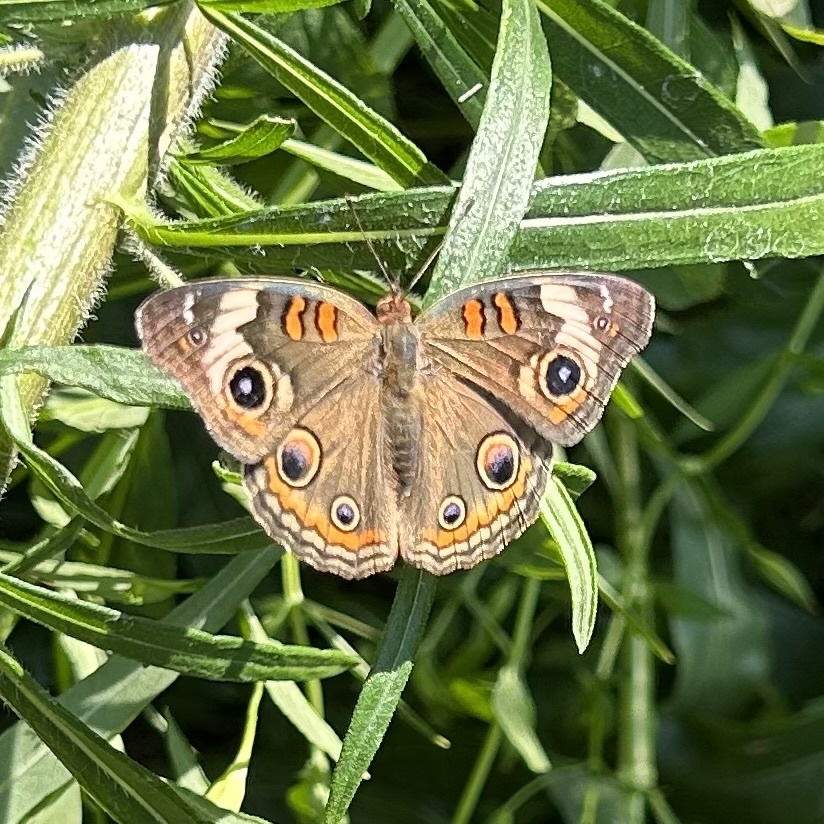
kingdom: Animalia
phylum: Arthropoda
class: Insecta
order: Lepidoptera
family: Nymphalidae
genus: Junonia
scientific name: Junonia coenia
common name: Common buckeye
